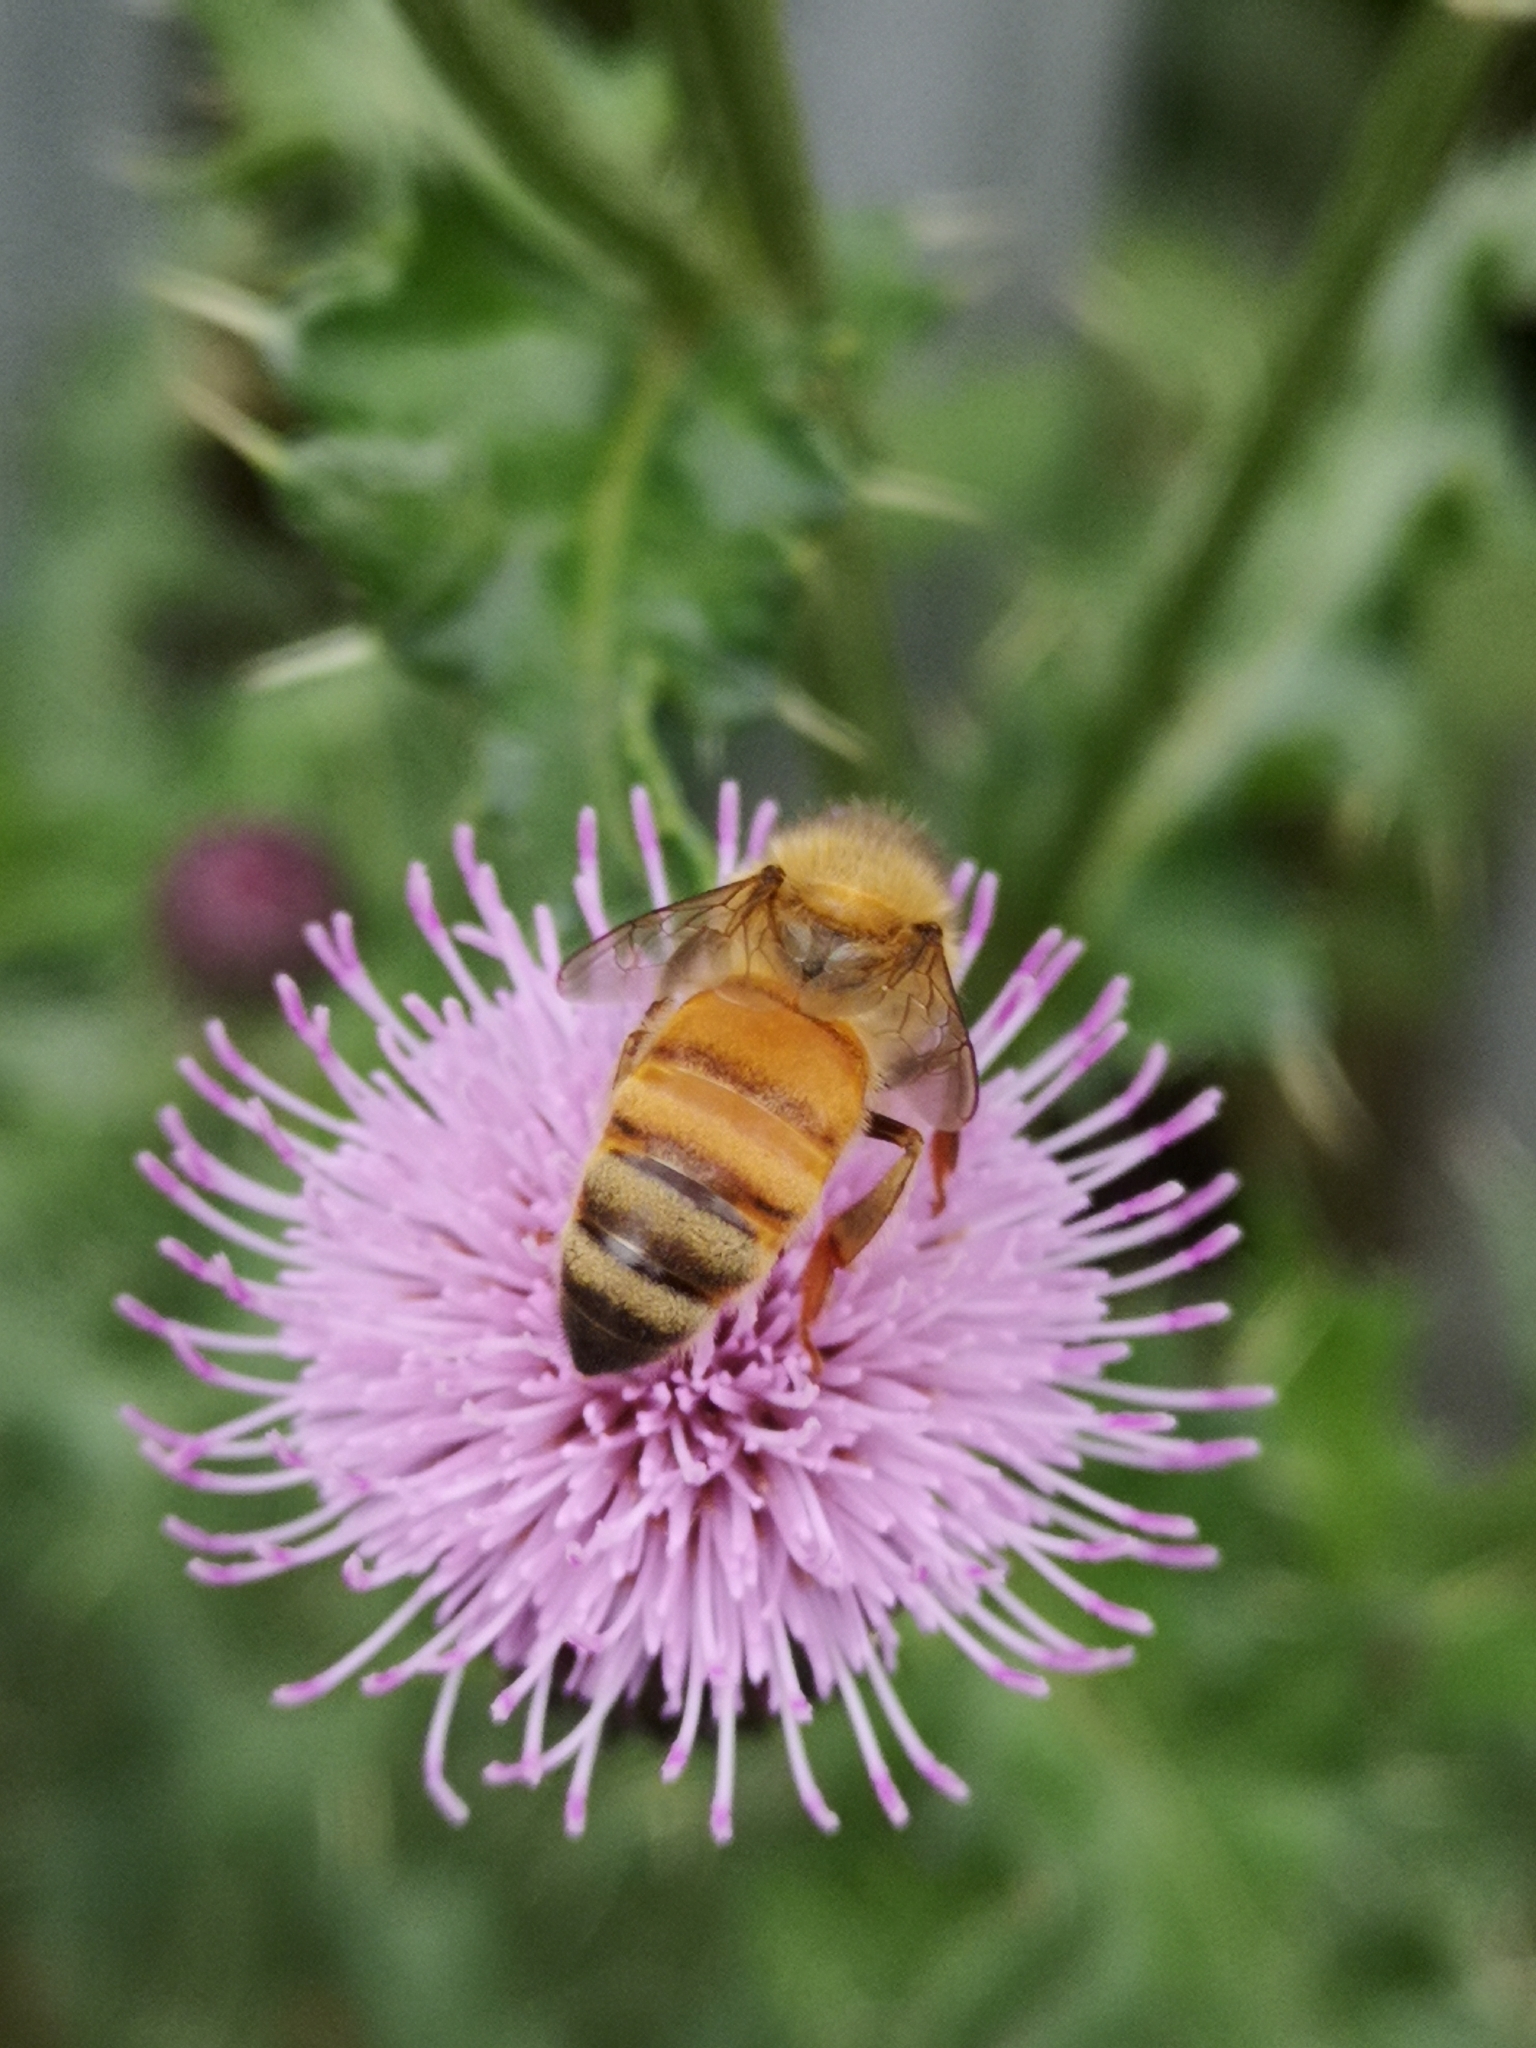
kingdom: Animalia
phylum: Arthropoda
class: Insecta
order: Hymenoptera
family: Apidae
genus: Apis
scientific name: Apis mellifera
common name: Honey bee
